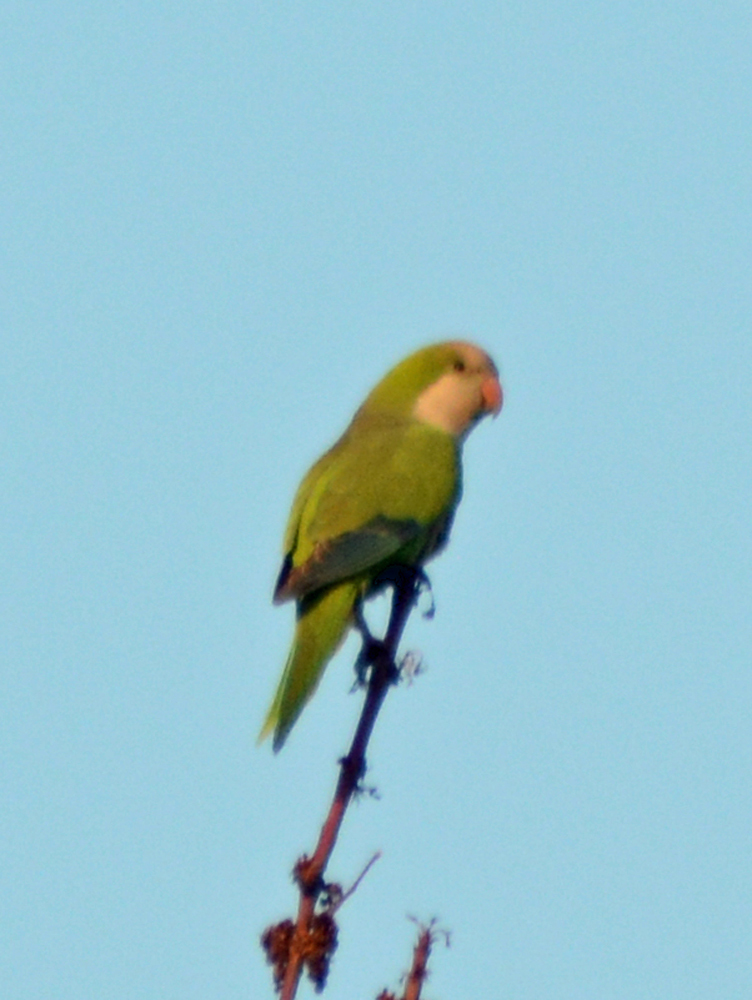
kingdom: Animalia
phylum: Chordata
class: Aves
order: Psittaciformes
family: Psittacidae
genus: Myiopsitta
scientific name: Myiopsitta monachus
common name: Monk parakeet
